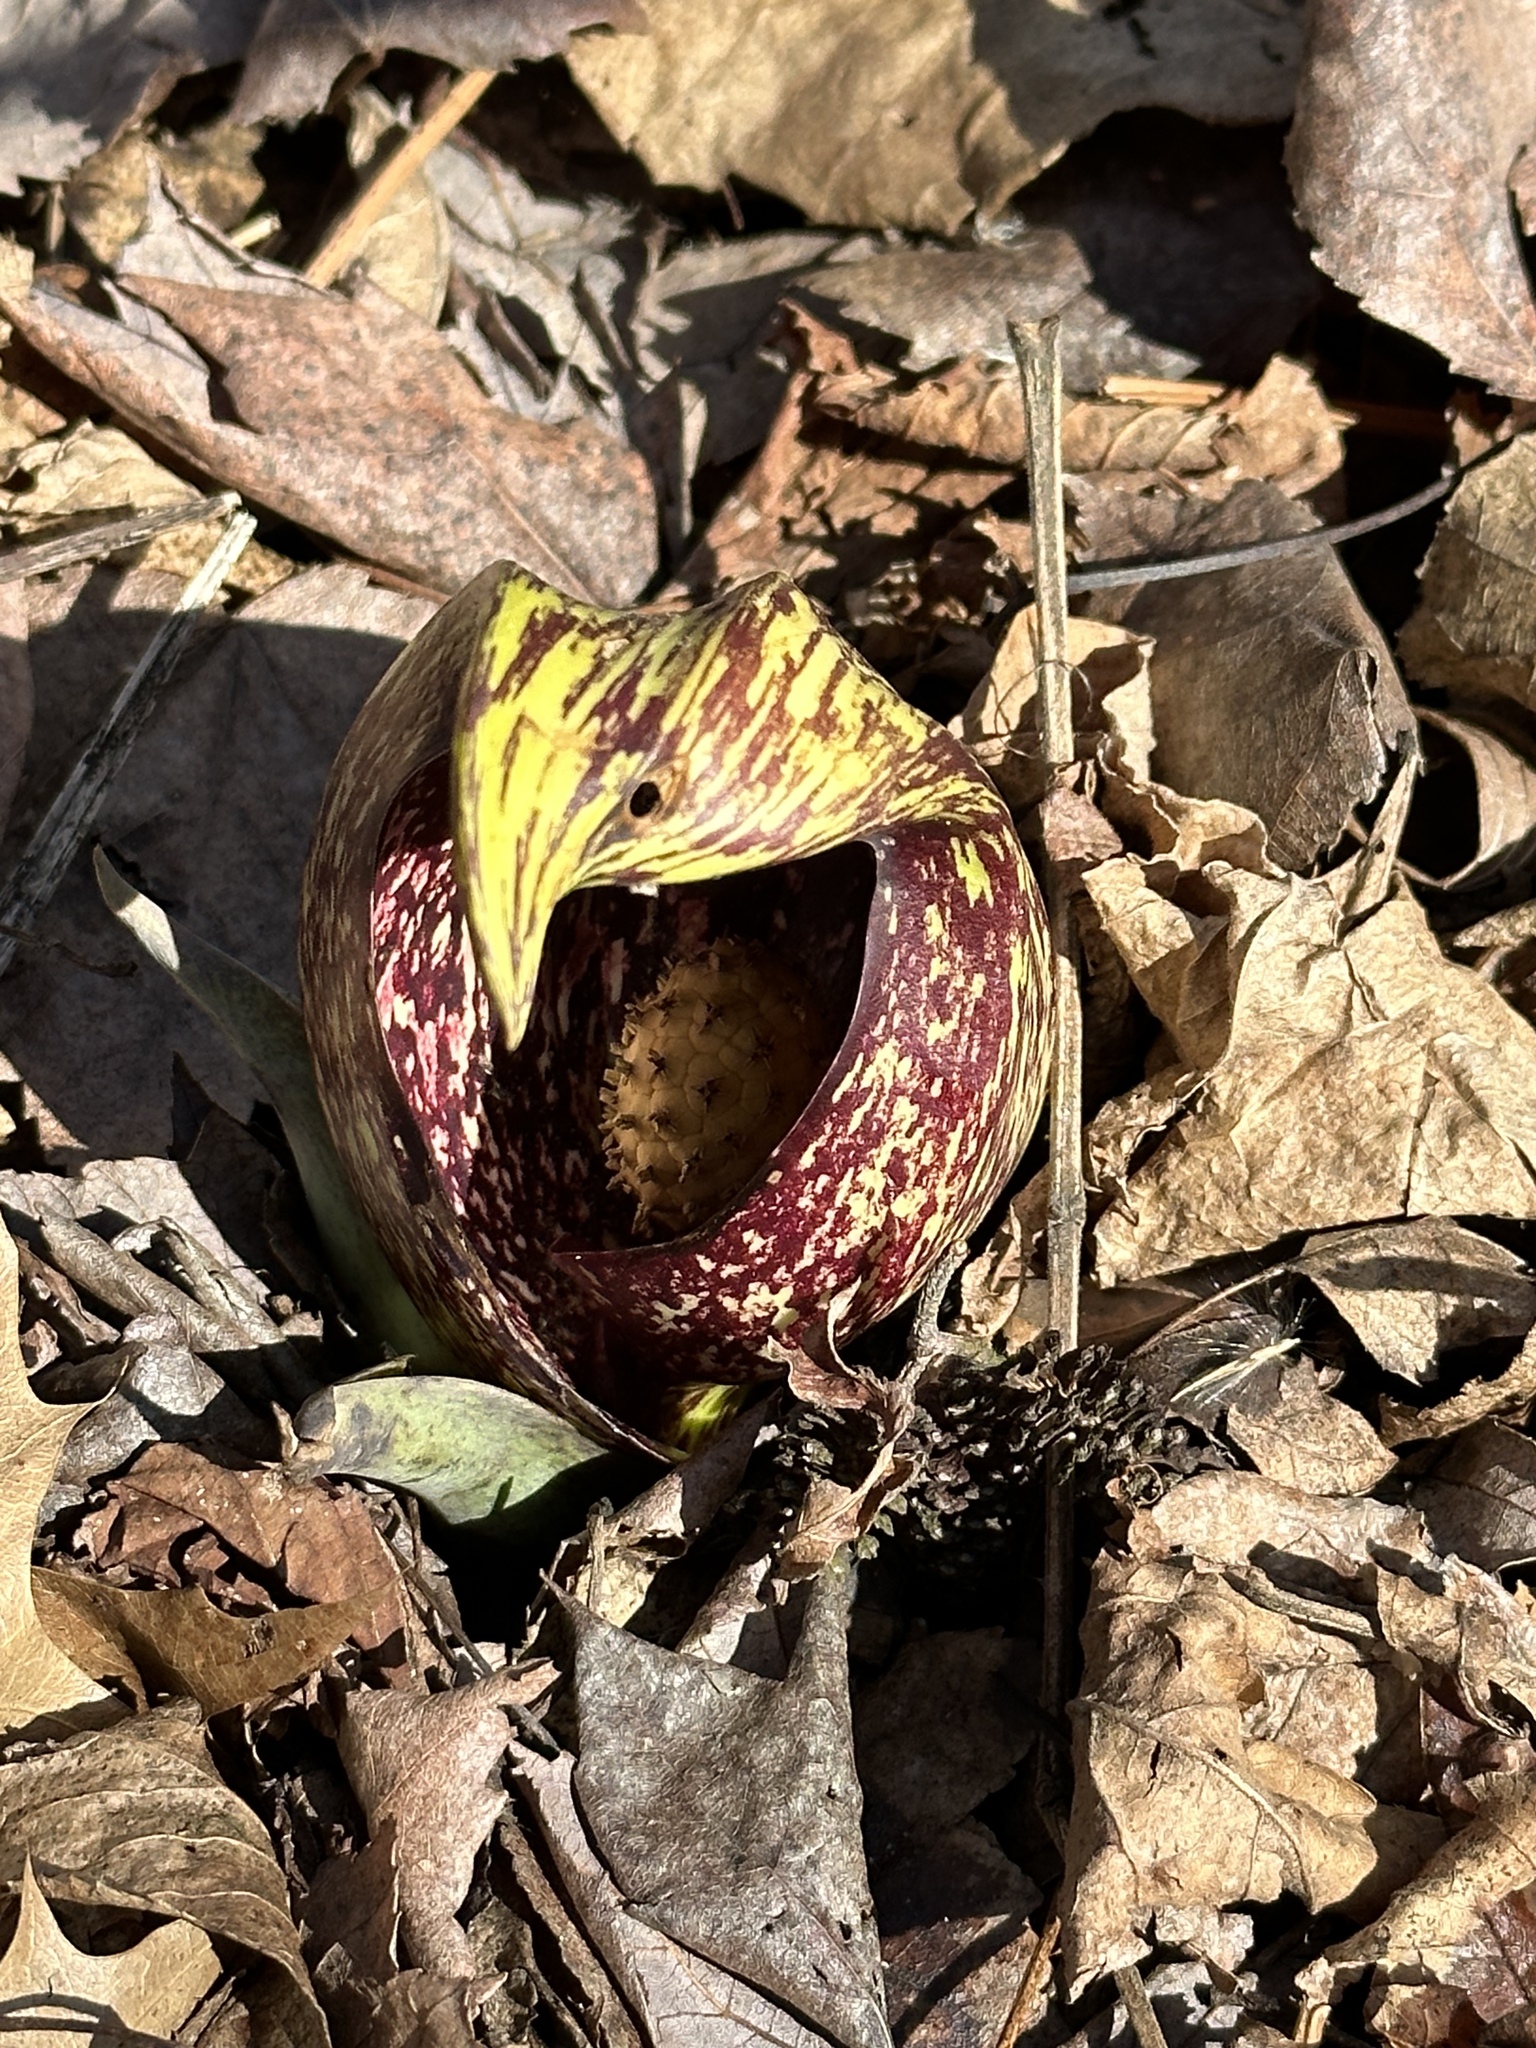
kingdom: Plantae
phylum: Tracheophyta
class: Liliopsida
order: Alismatales
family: Araceae
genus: Symplocarpus
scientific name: Symplocarpus foetidus
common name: Eastern skunk cabbage
